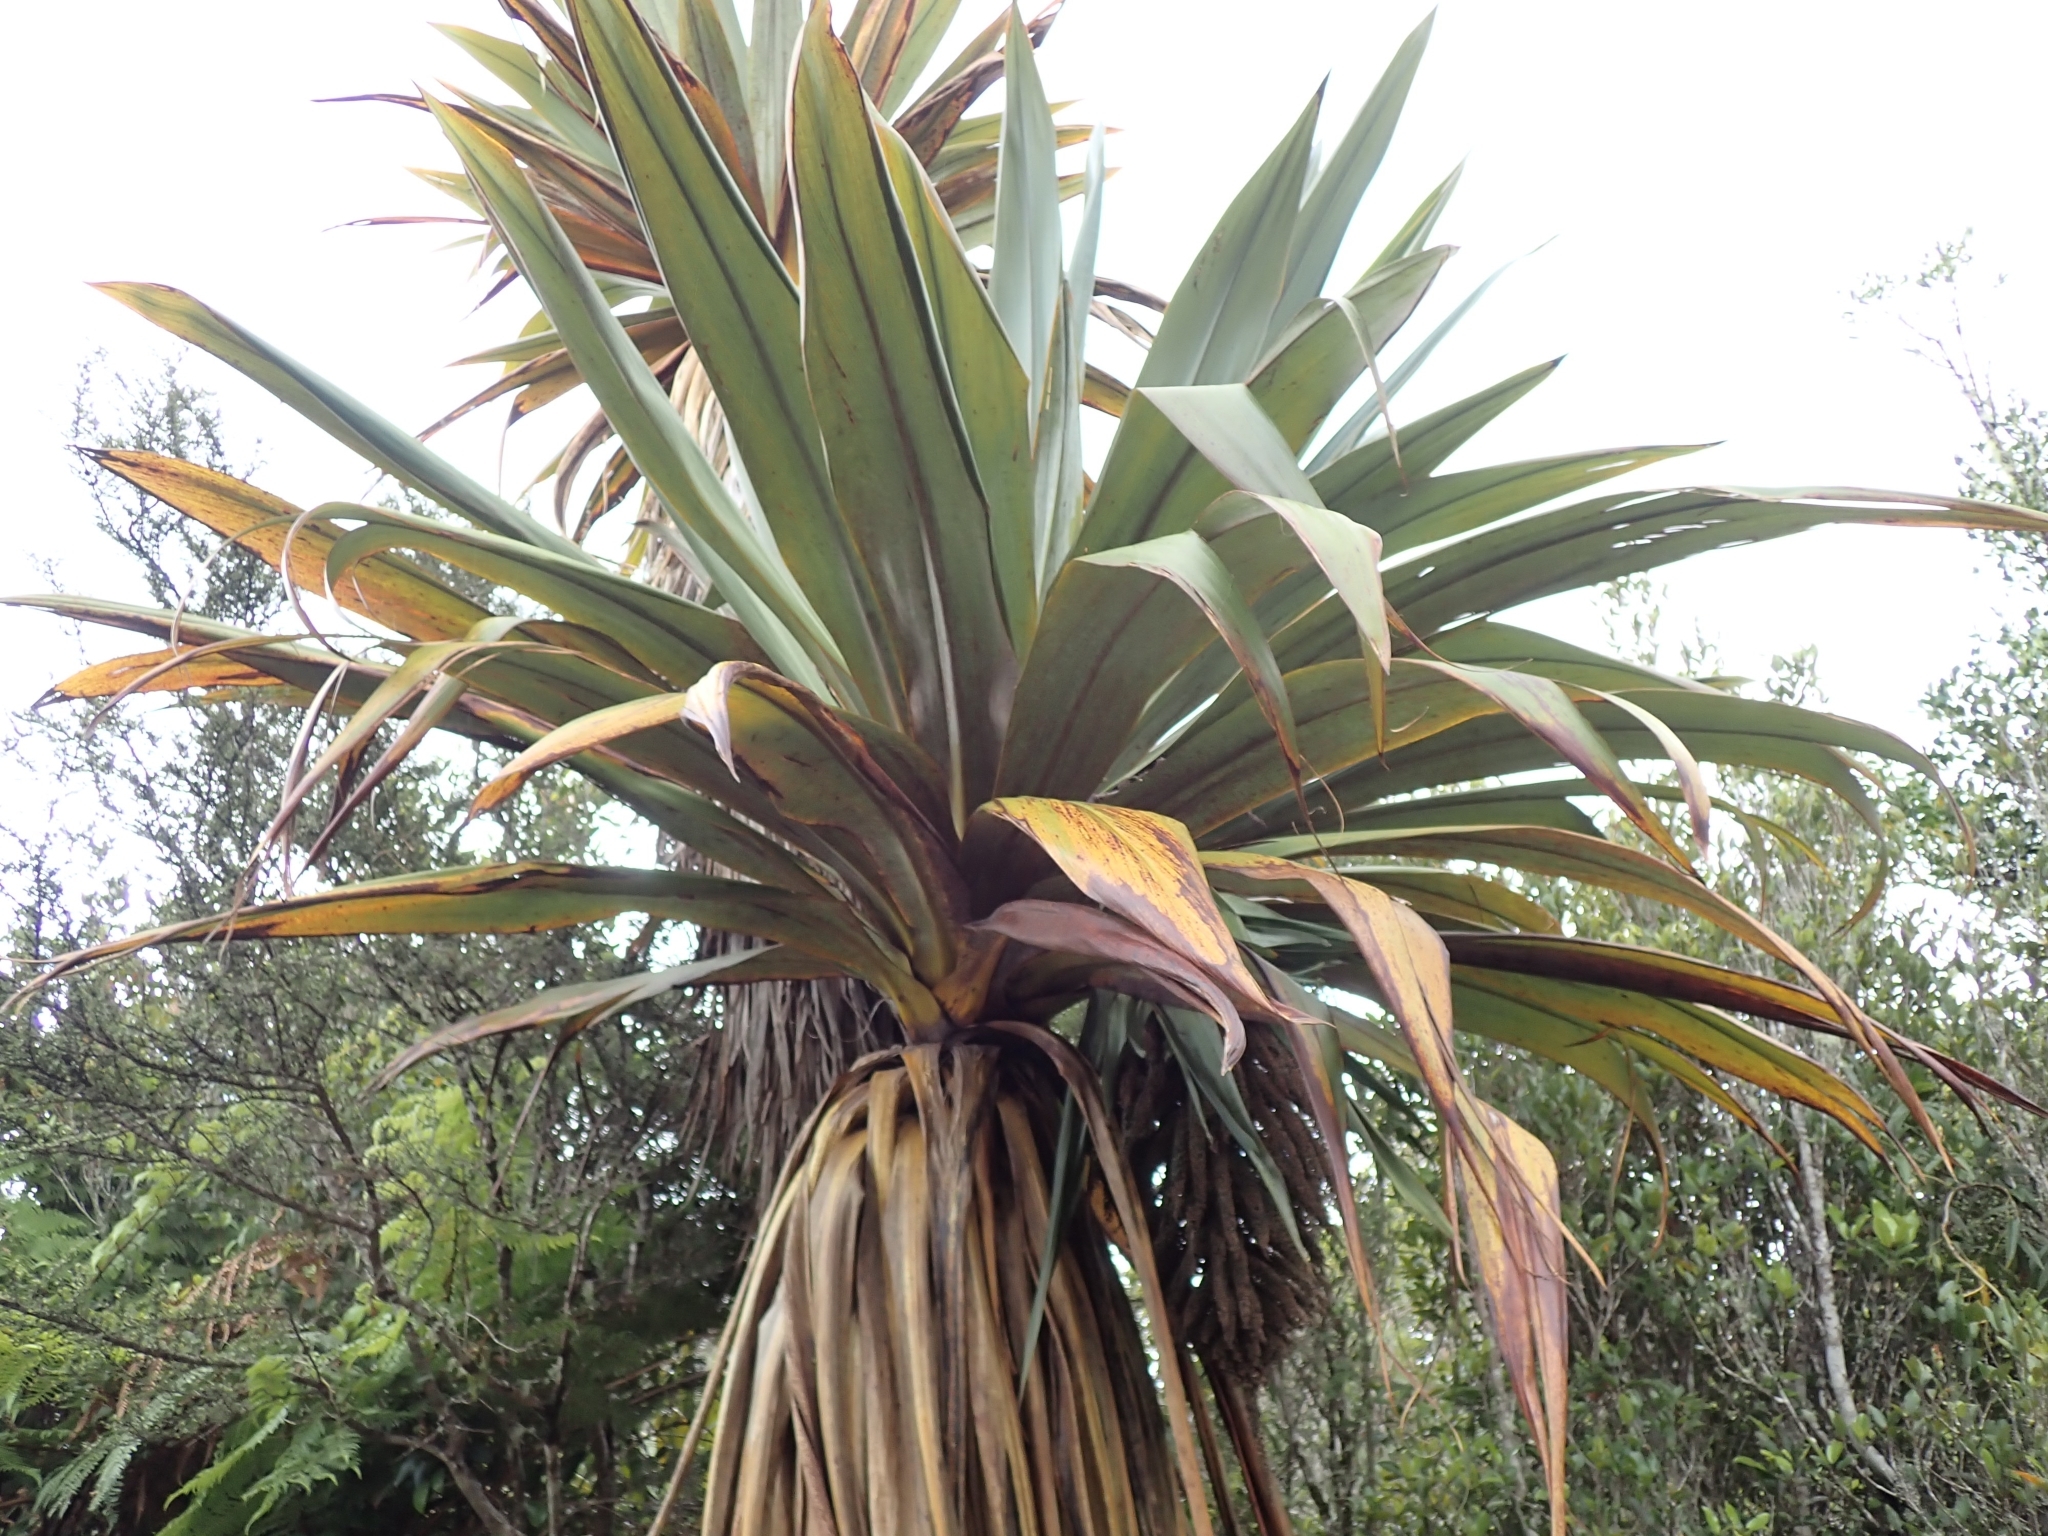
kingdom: Plantae
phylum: Tracheophyta
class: Liliopsida
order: Asparagales
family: Asparagaceae
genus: Cordyline
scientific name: Cordyline indivisa
